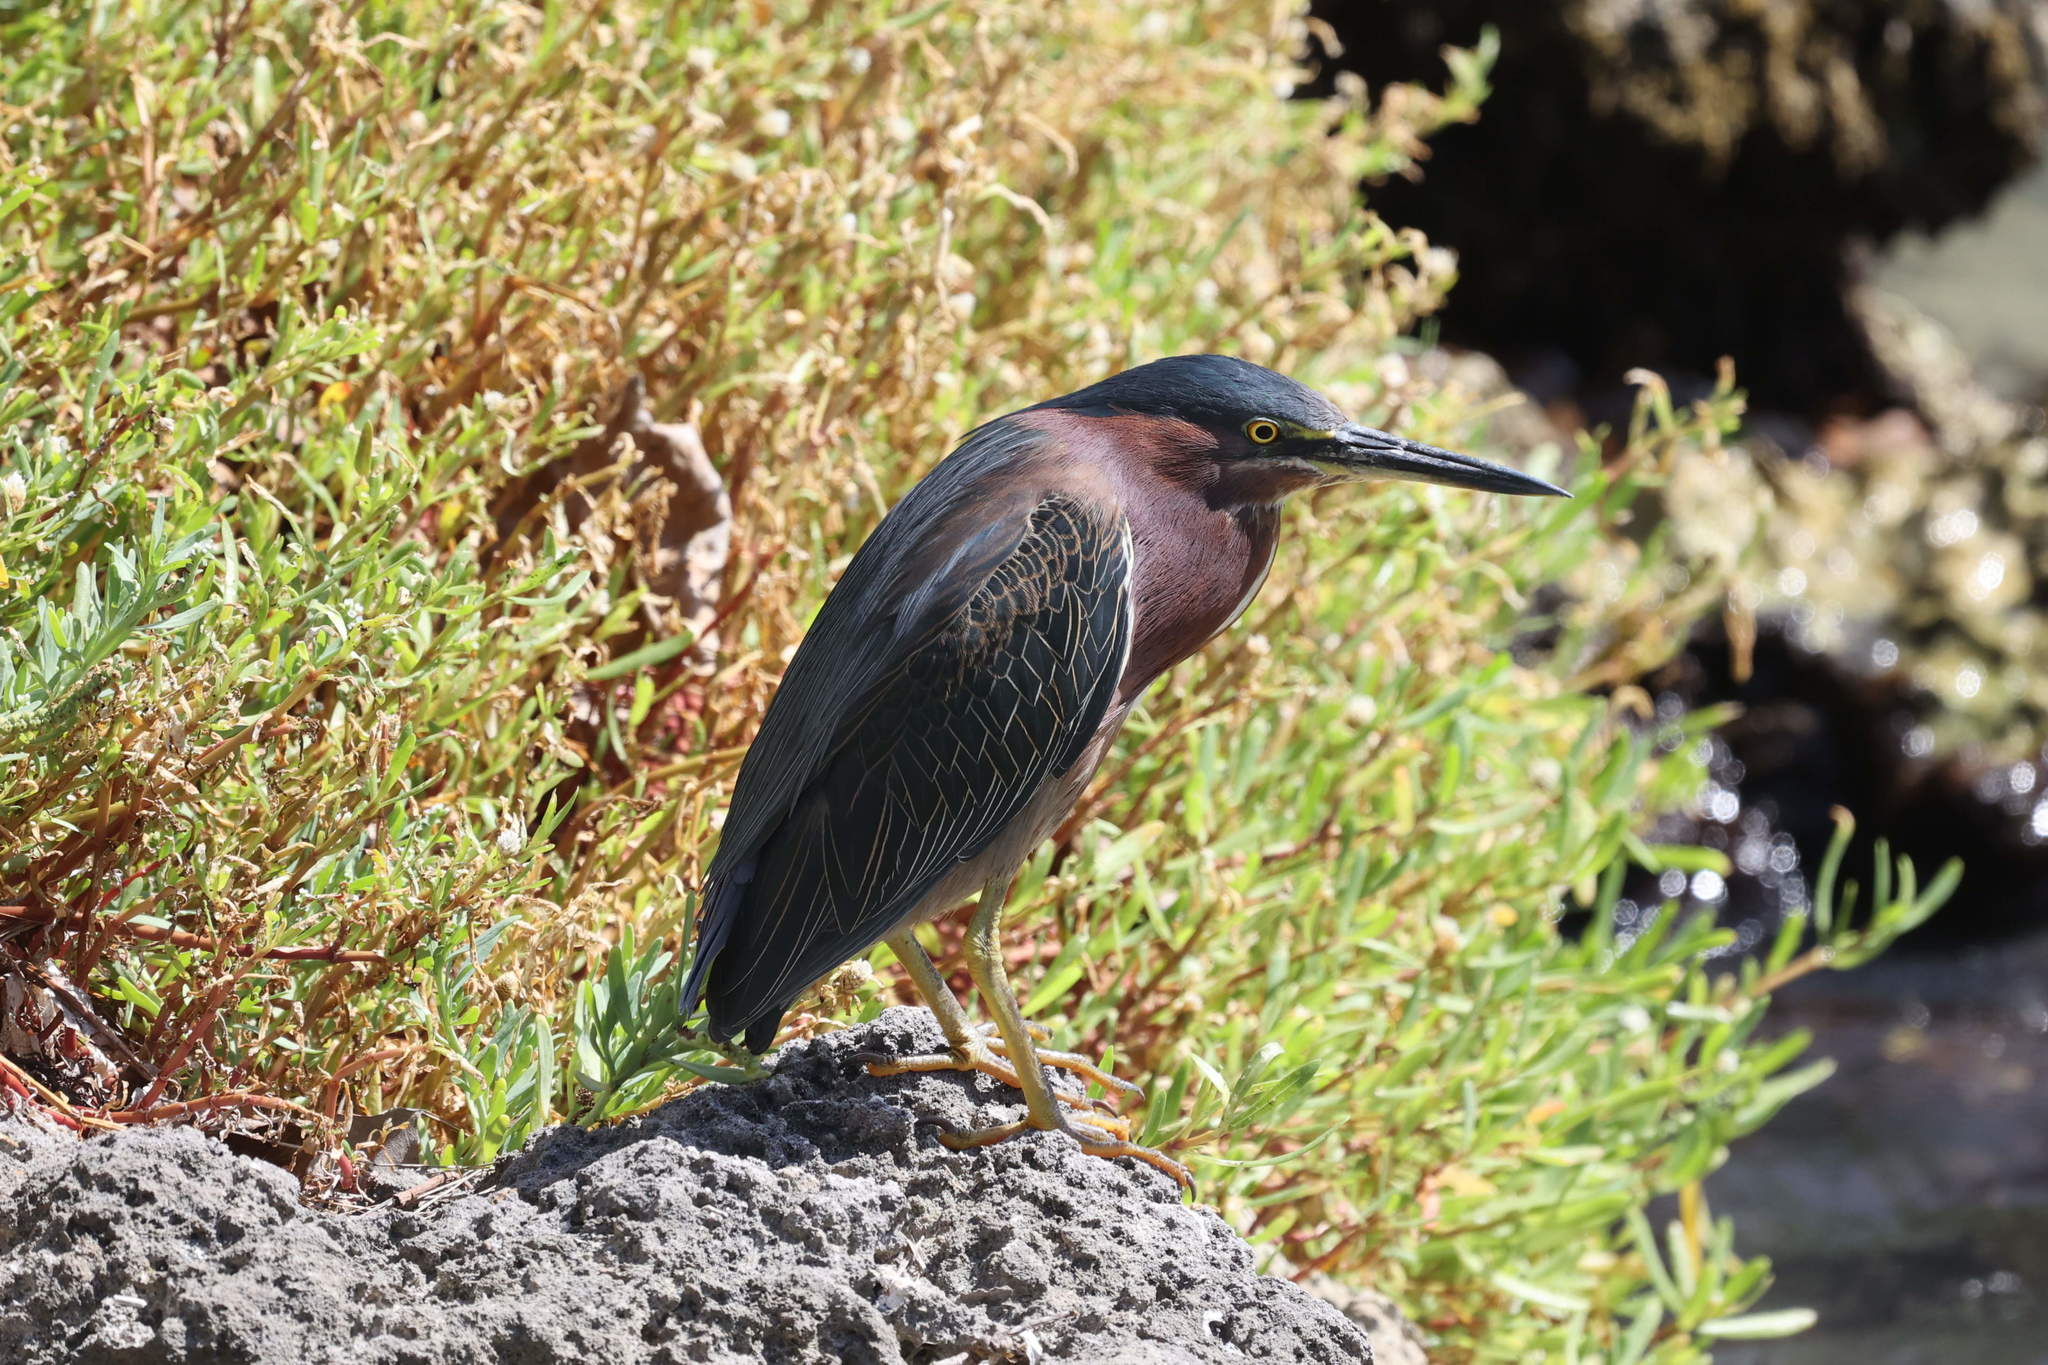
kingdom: Animalia
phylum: Chordata
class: Aves
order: Pelecaniformes
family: Ardeidae
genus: Butorides
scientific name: Butorides virescens
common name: Green heron
